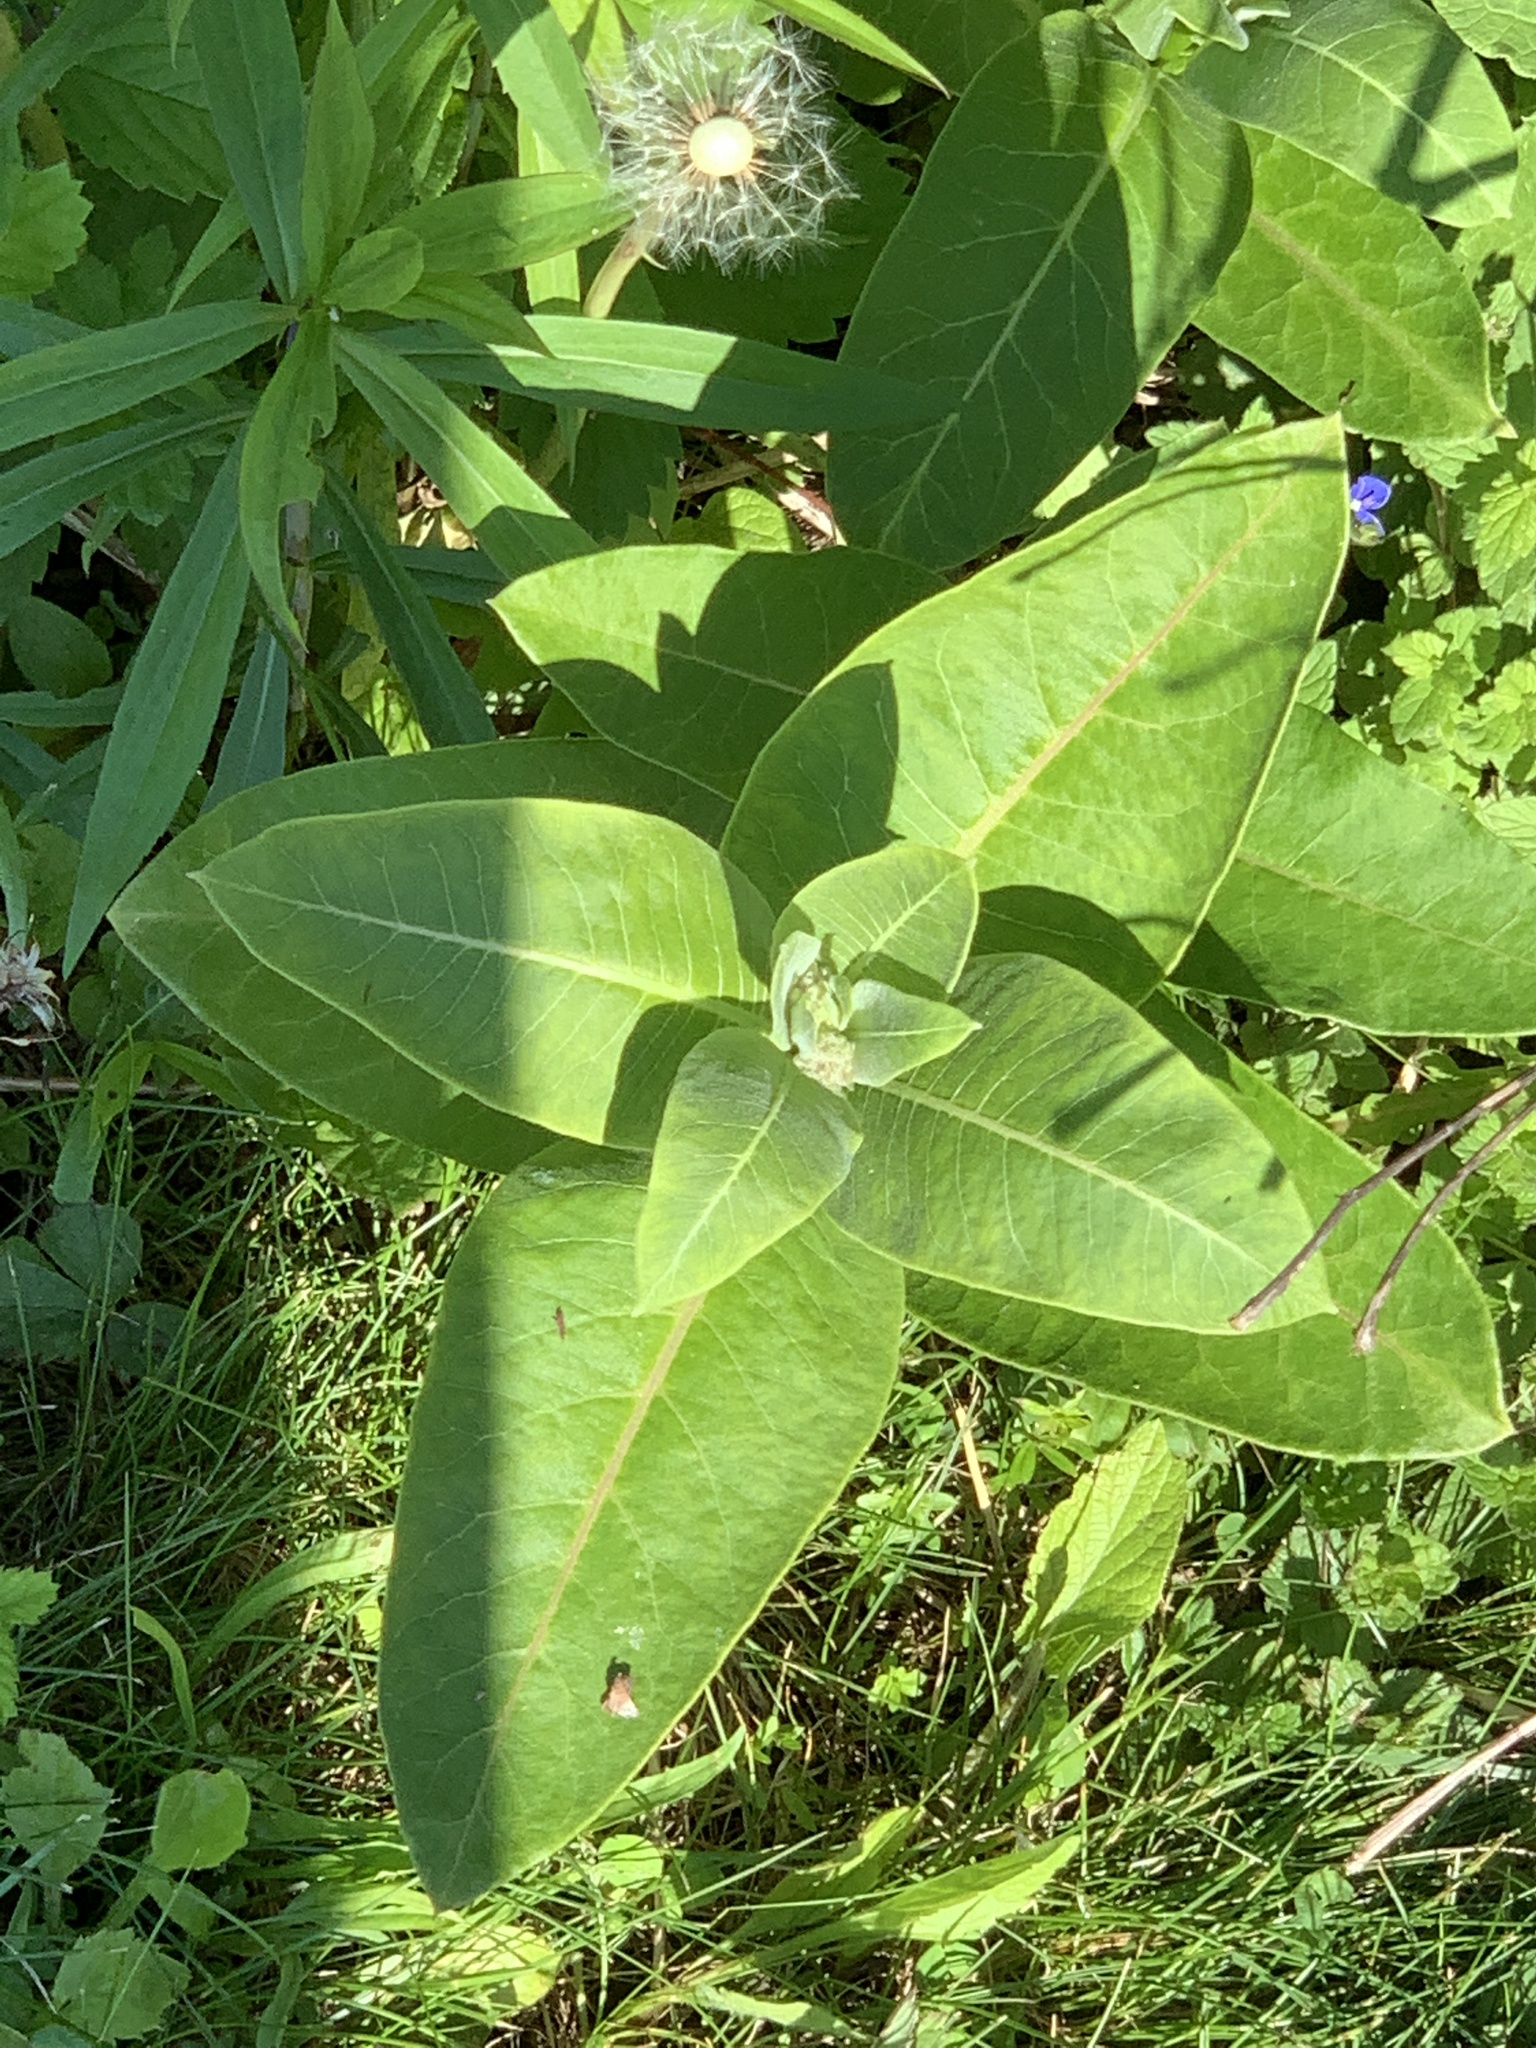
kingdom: Plantae
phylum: Tracheophyta
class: Magnoliopsida
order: Gentianales
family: Apocynaceae
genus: Asclepias
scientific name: Asclepias syriaca
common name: Common milkweed
